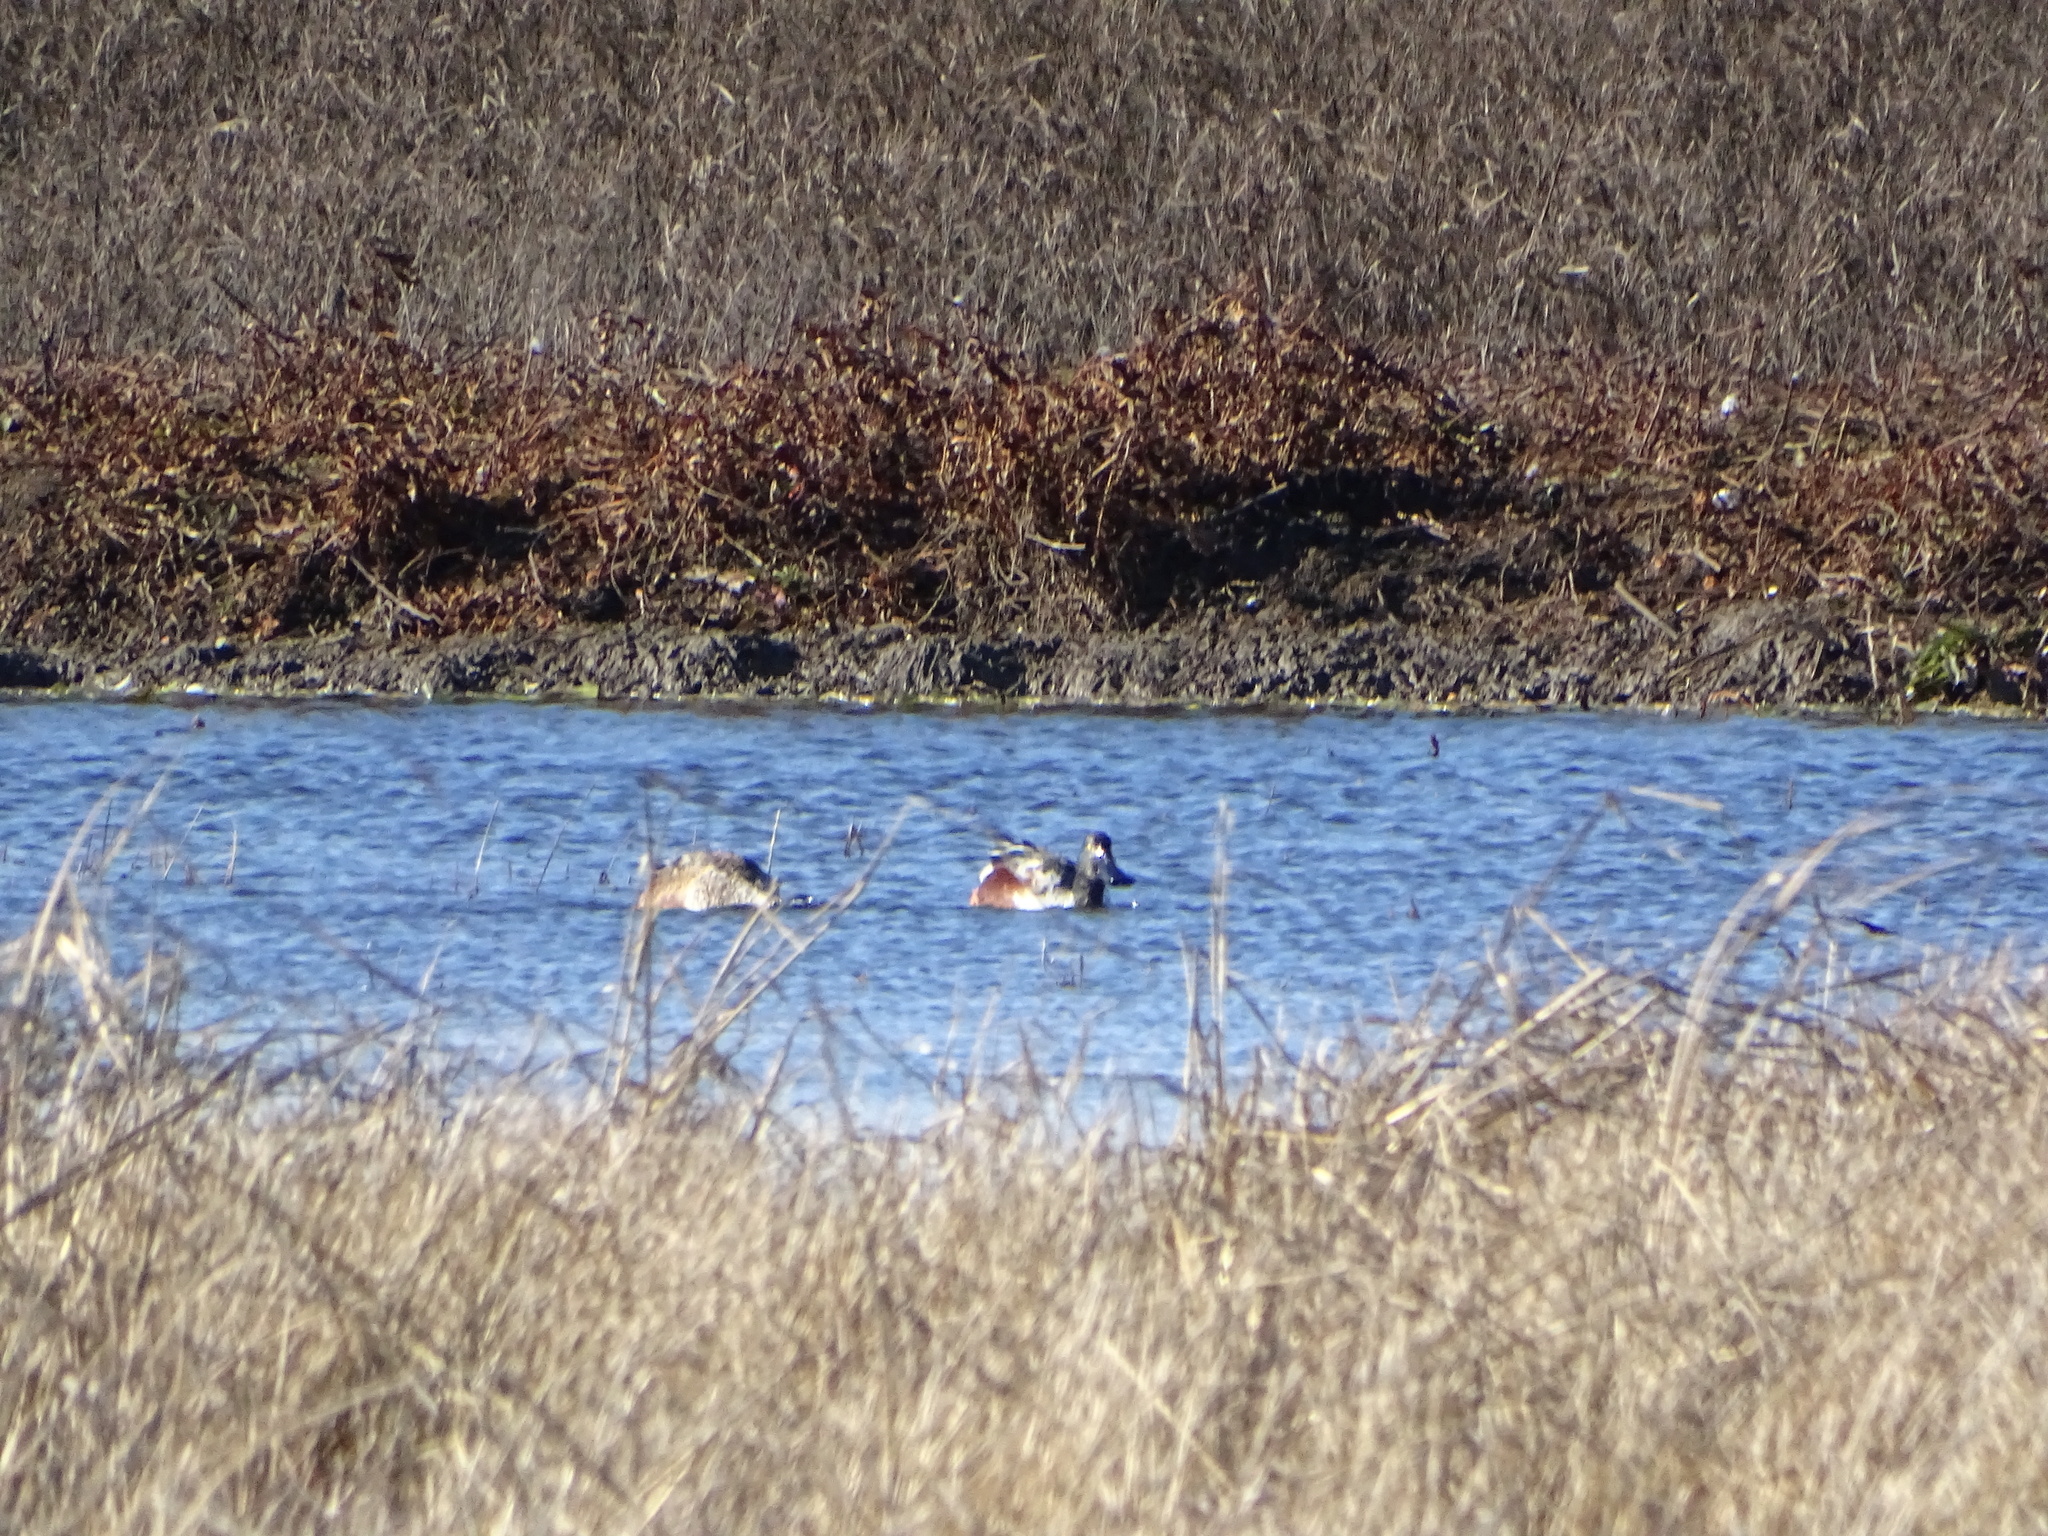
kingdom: Animalia
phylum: Chordata
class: Aves
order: Anseriformes
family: Anatidae
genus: Spatula
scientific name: Spatula clypeata
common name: Northern shoveler
